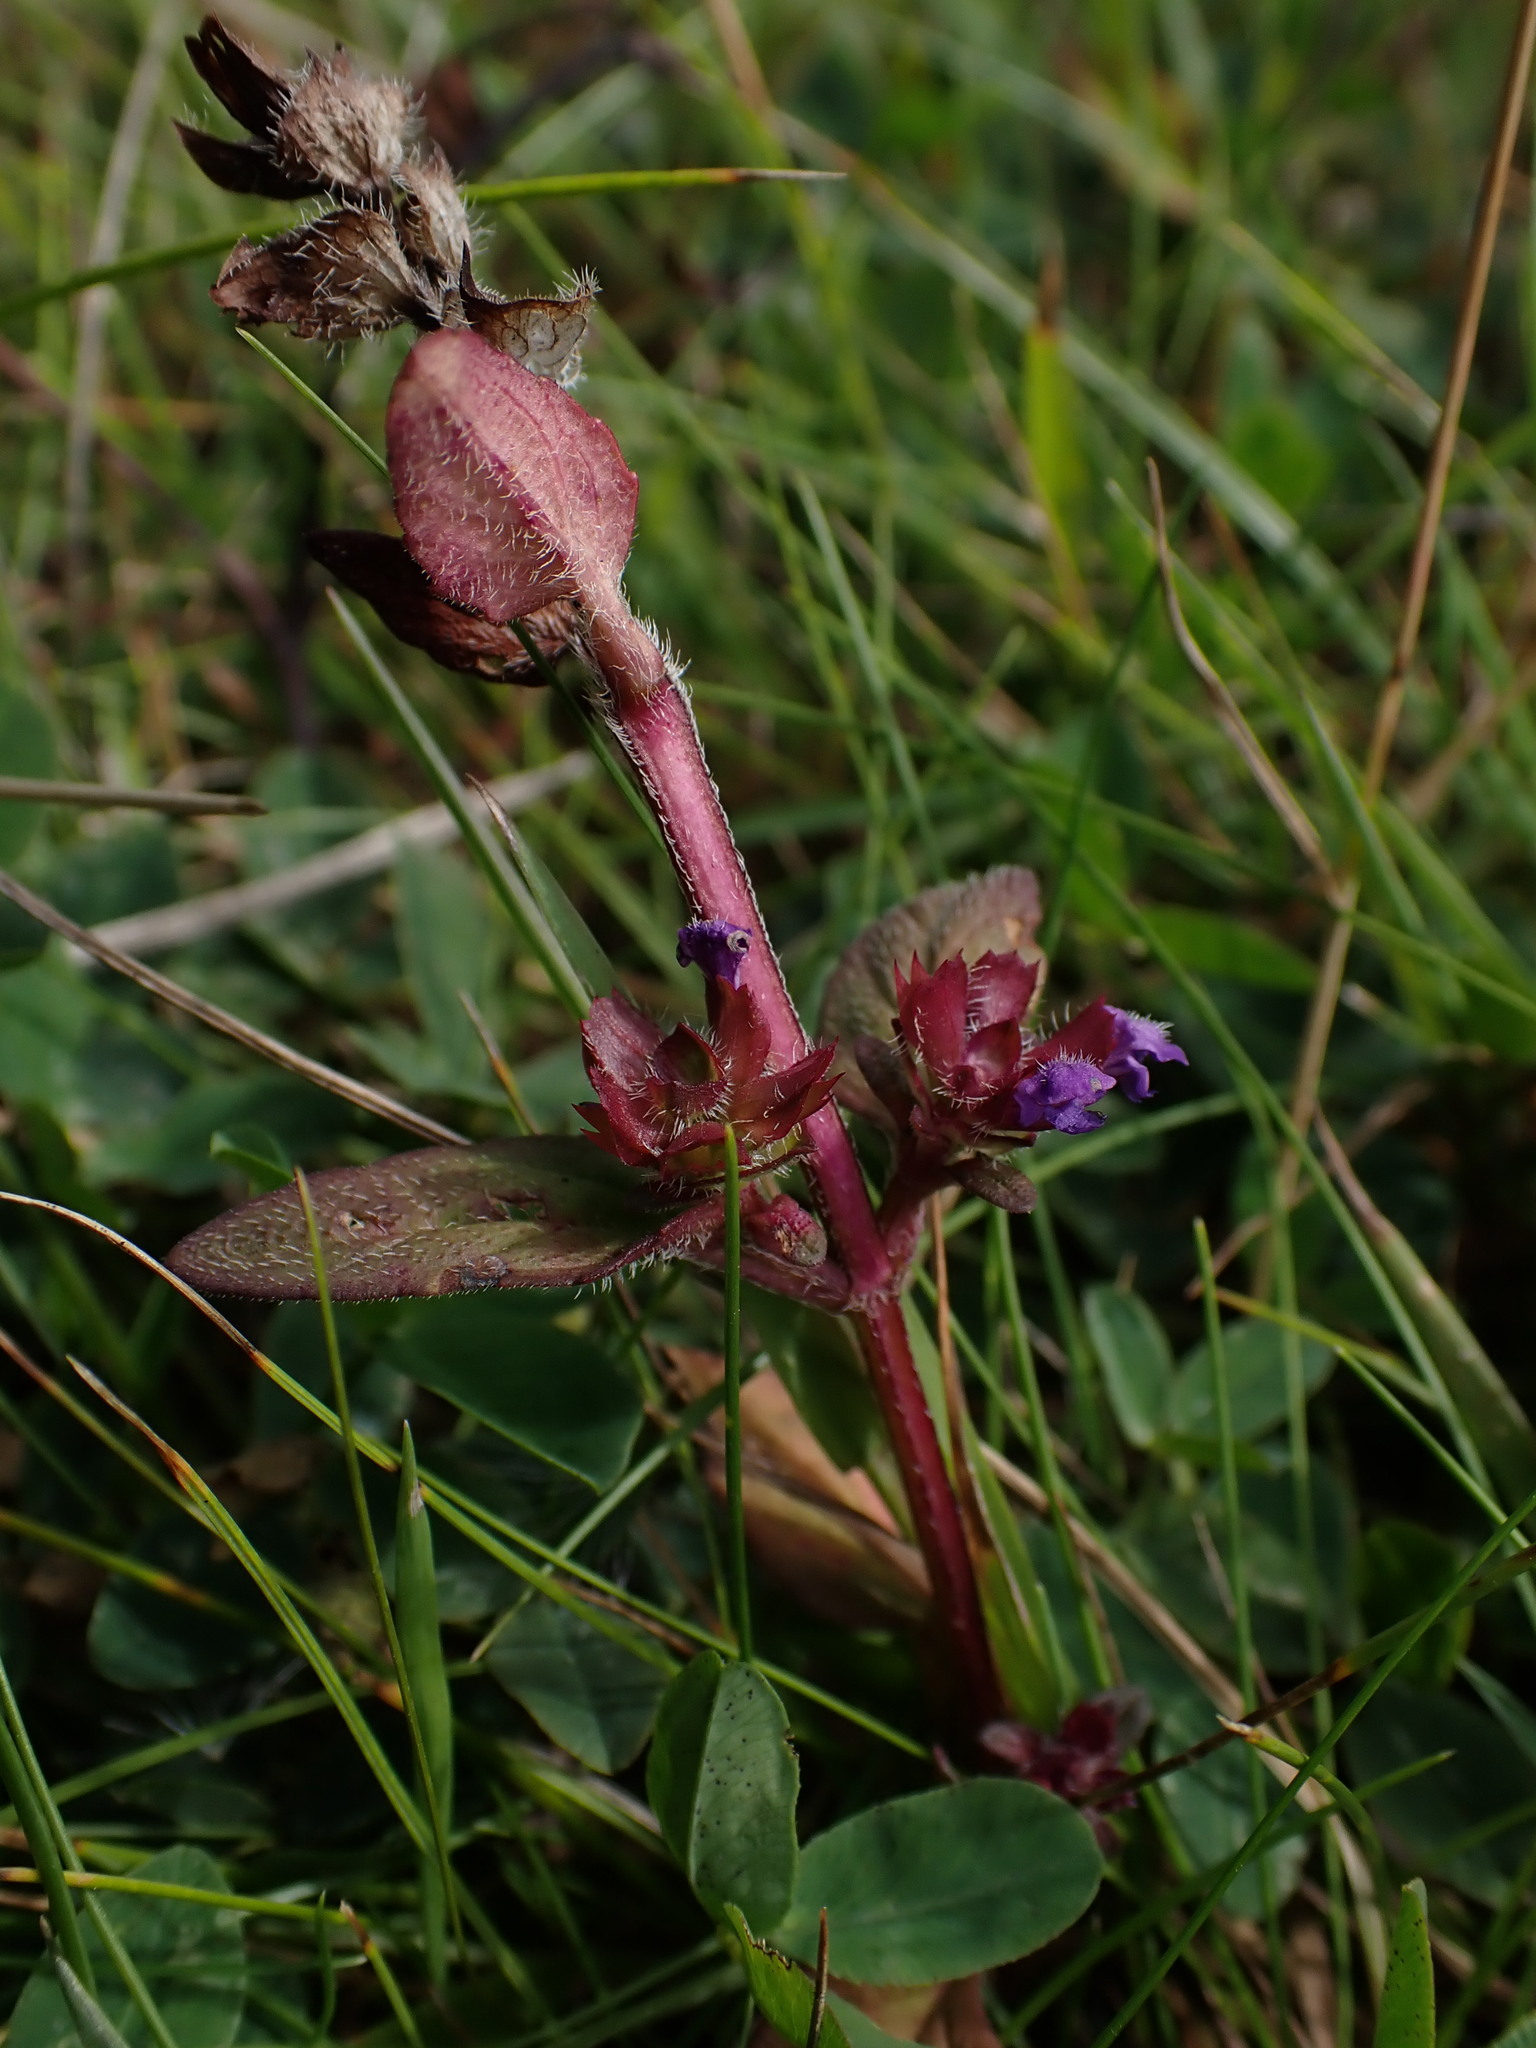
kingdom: Plantae
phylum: Tracheophyta
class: Magnoliopsida
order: Lamiales
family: Lamiaceae
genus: Prunella
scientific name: Prunella vulgaris
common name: Heal-all
